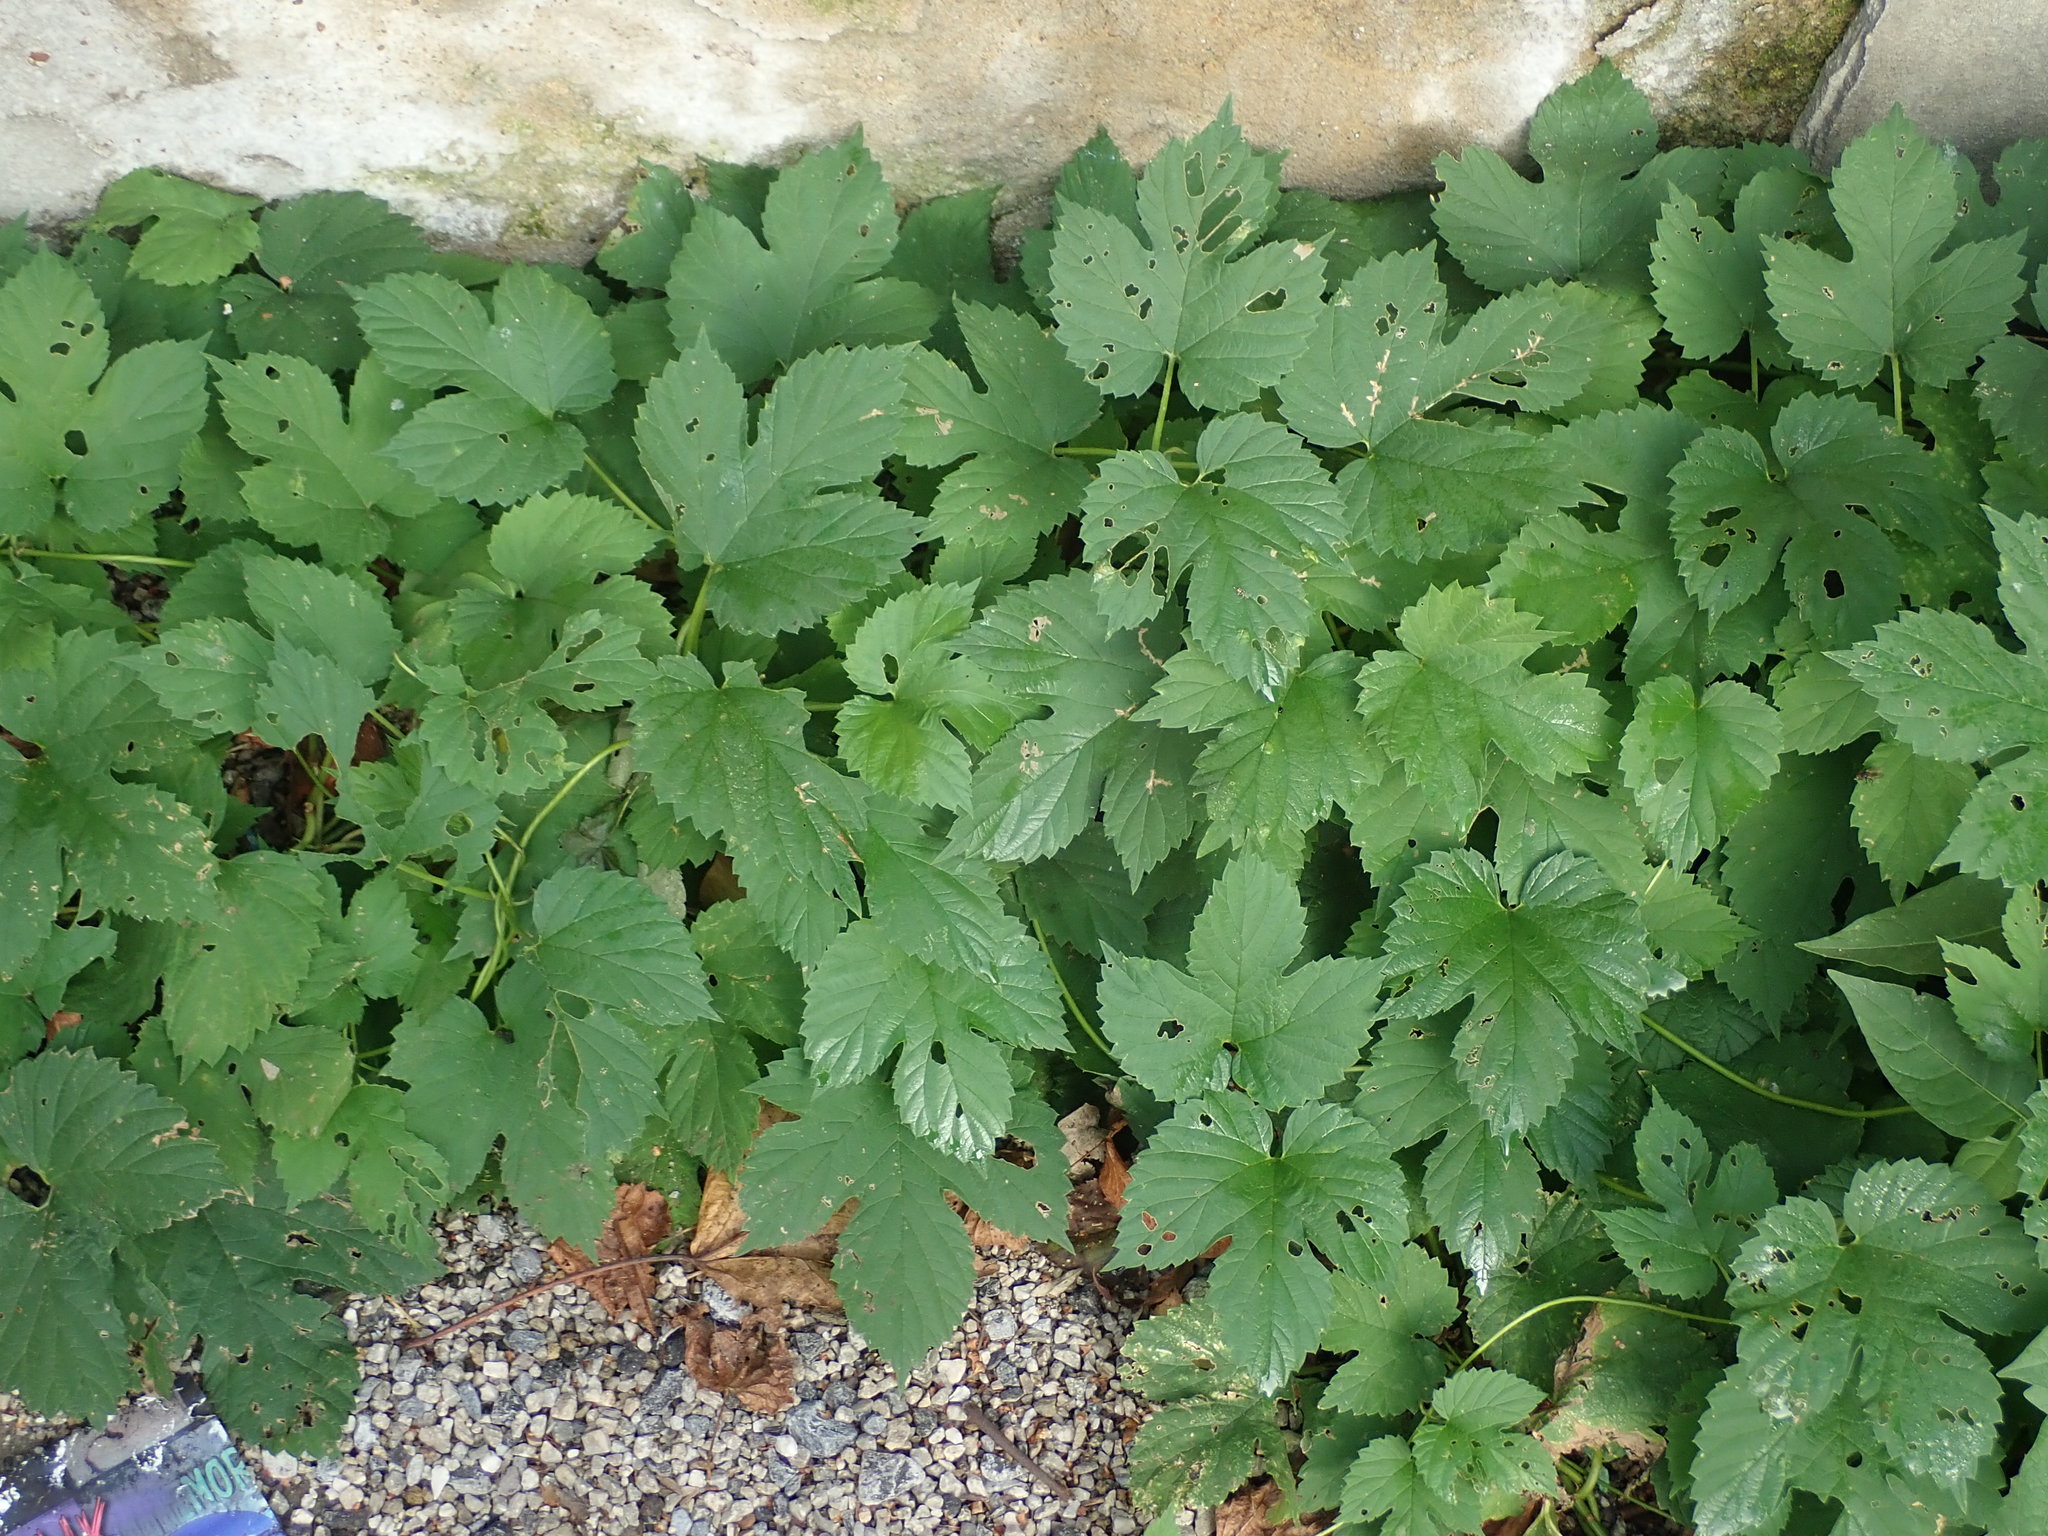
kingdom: Plantae
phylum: Tracheophyta
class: Magnoliopsida
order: Rosales
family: Cannabaceae
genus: Humulus
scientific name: Humulus lupulus
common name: Hop
